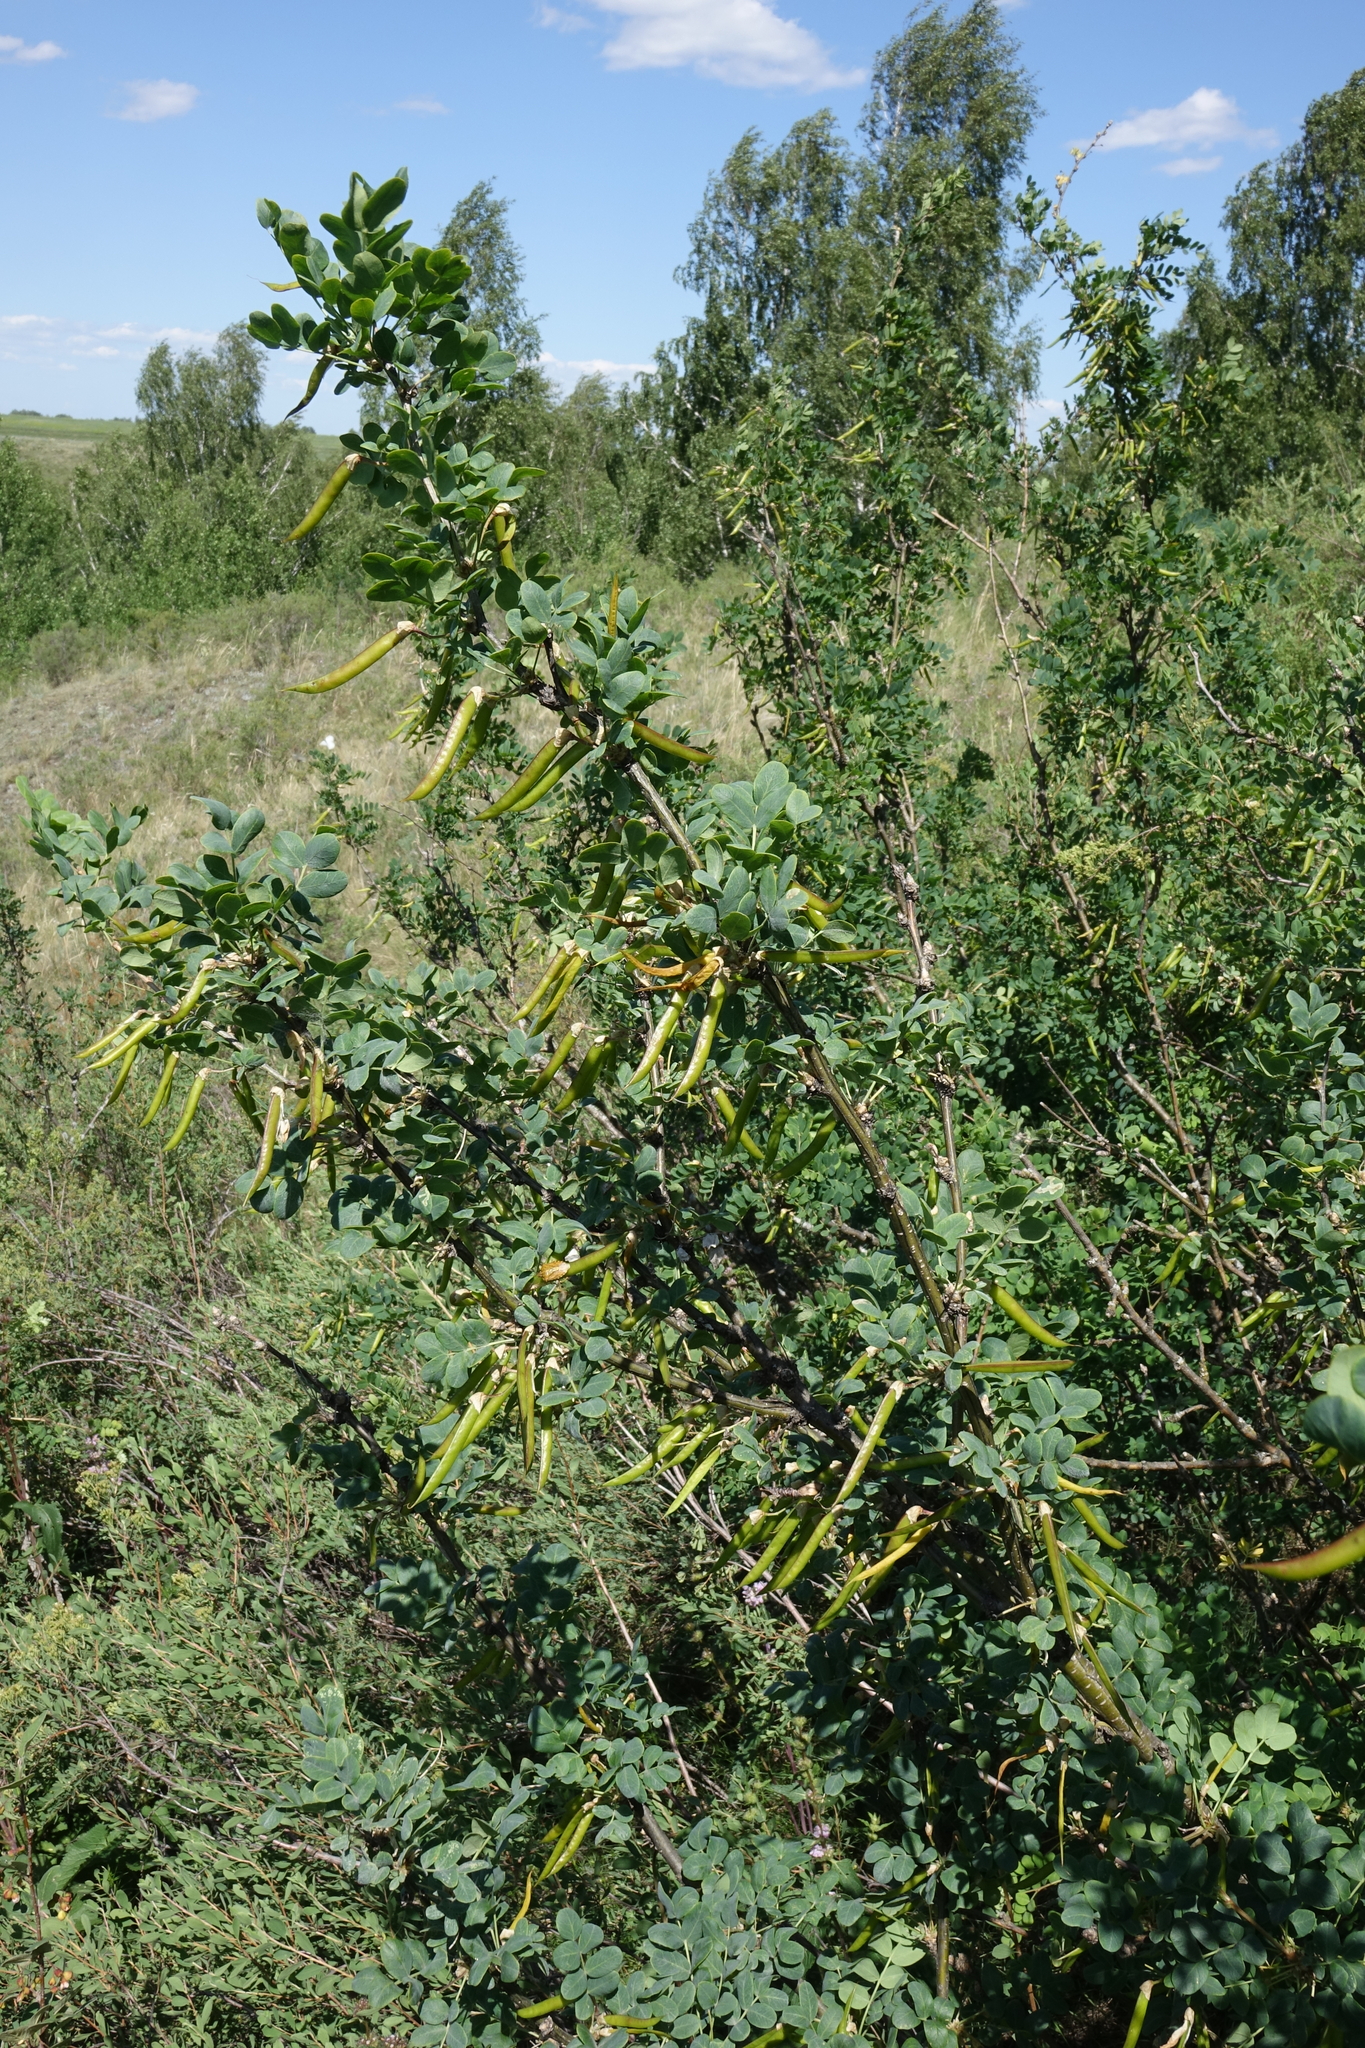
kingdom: Plantae
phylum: Tracheophyta
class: Magnoliopsida
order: Fabales
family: Fabaceae
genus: Caragana
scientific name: Caragana arborescens
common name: Siberian peashrub
